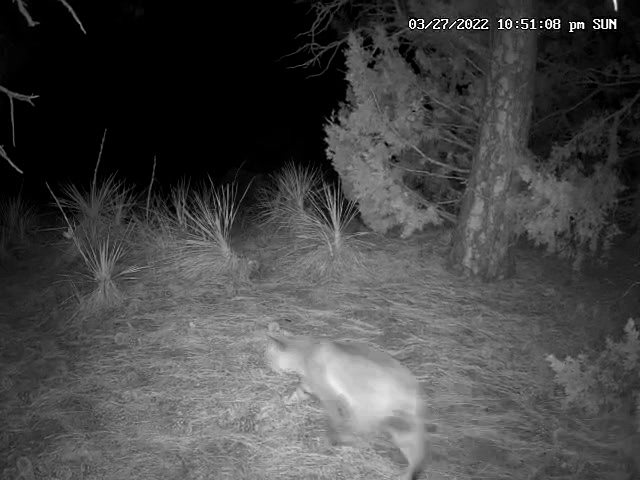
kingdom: Animalia
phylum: Chordata
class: Mammalia
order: Carnivora
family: Felidae
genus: Lynx
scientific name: Lynx rufus
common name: Bobcat
